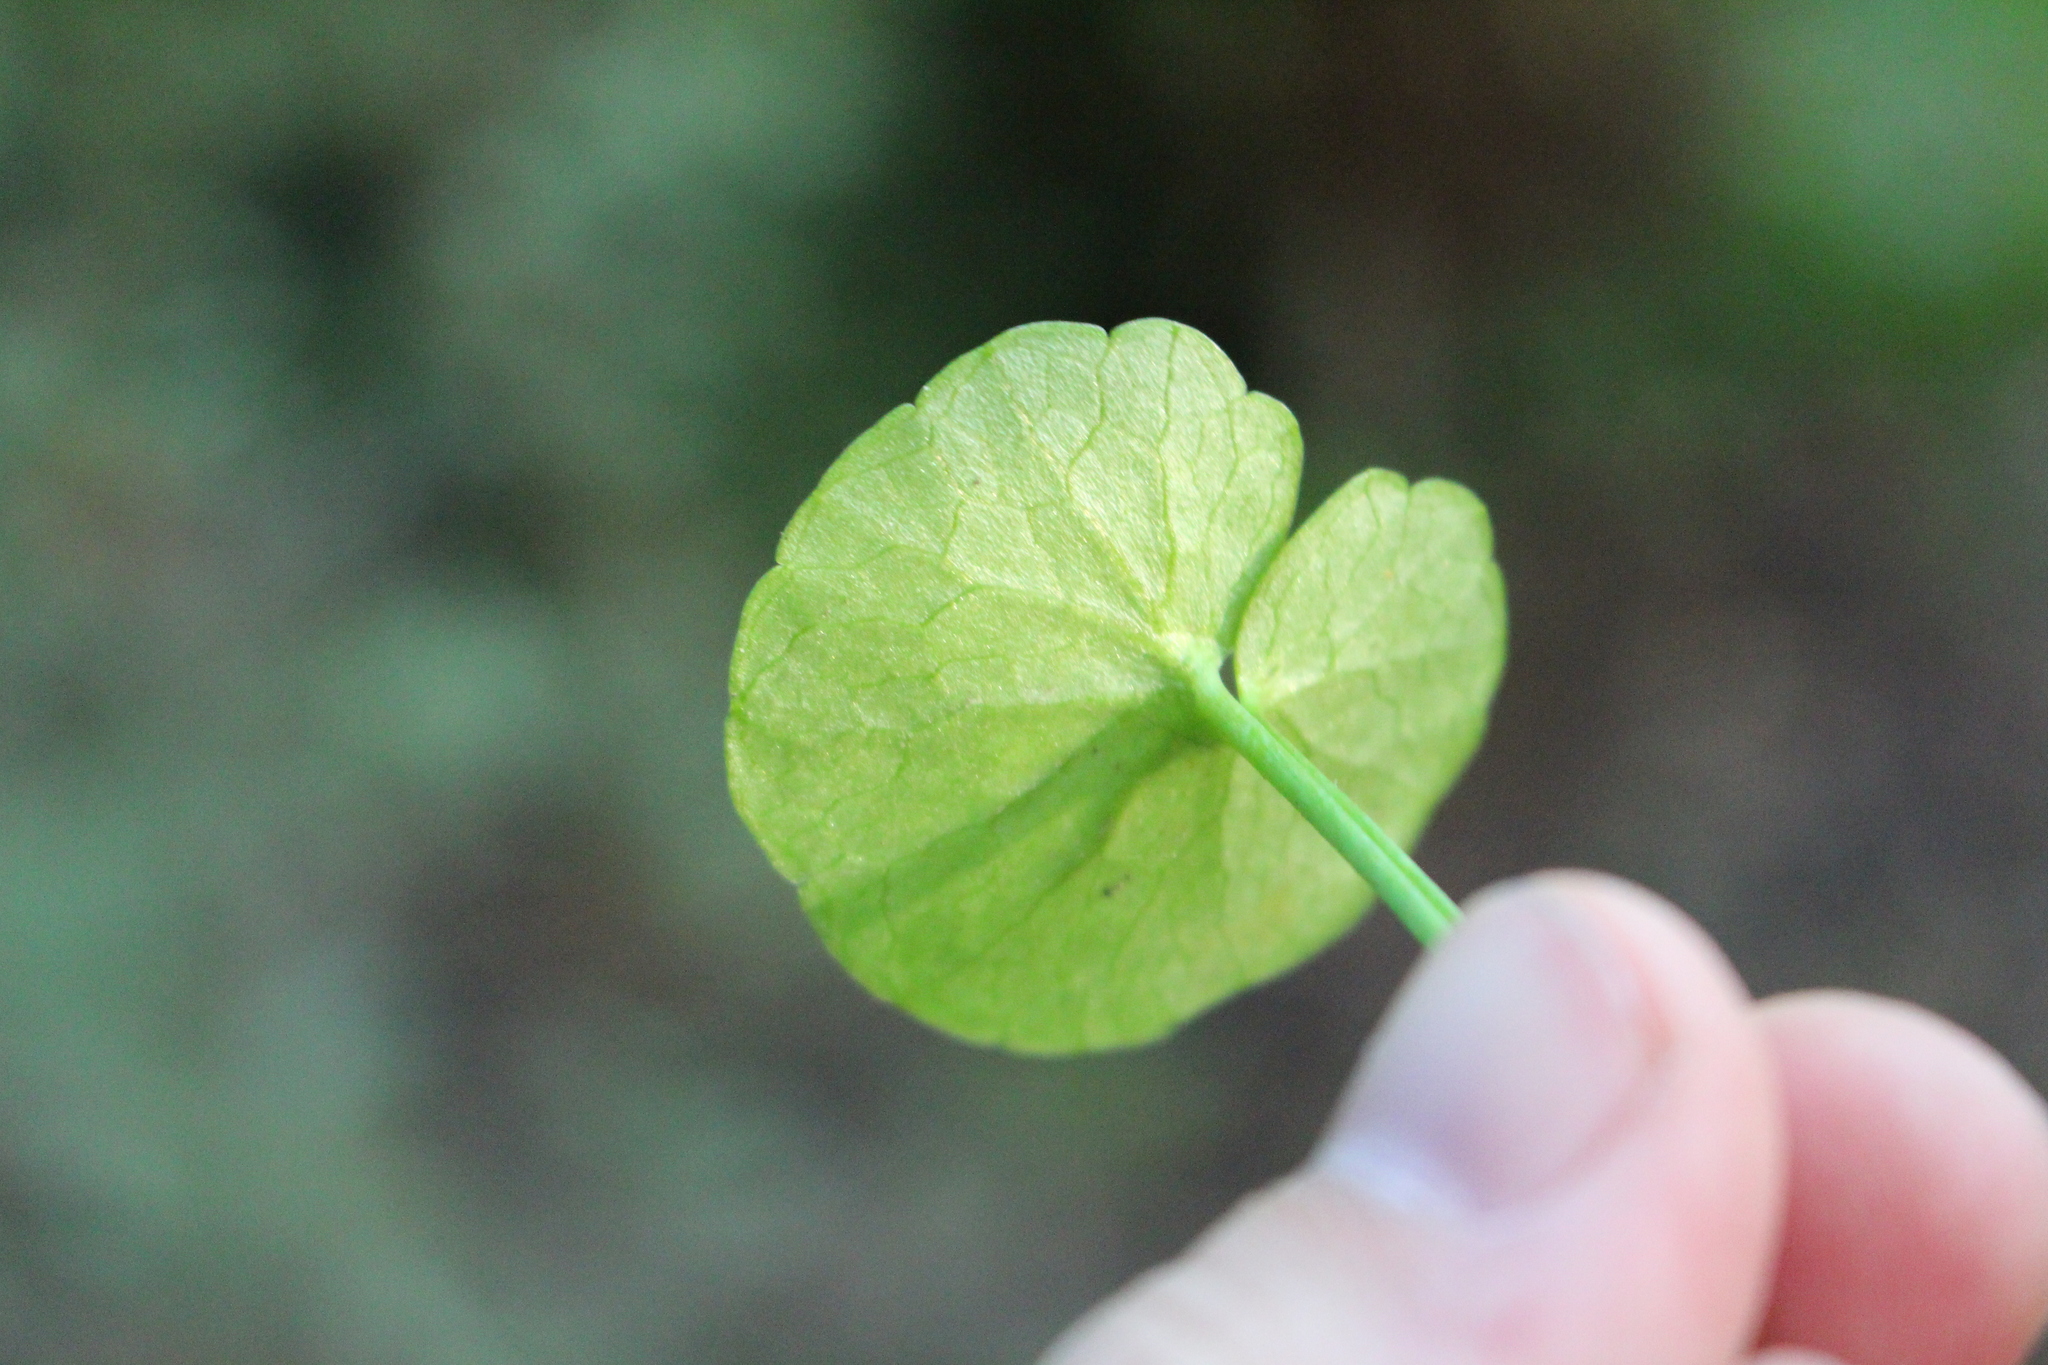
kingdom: Plantae
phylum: Tracheophyta
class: Magnoliopsida
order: Ranunculales
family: Ranunculaceae
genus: Ficaria
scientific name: Ficaria verna
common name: Lesser celandine
